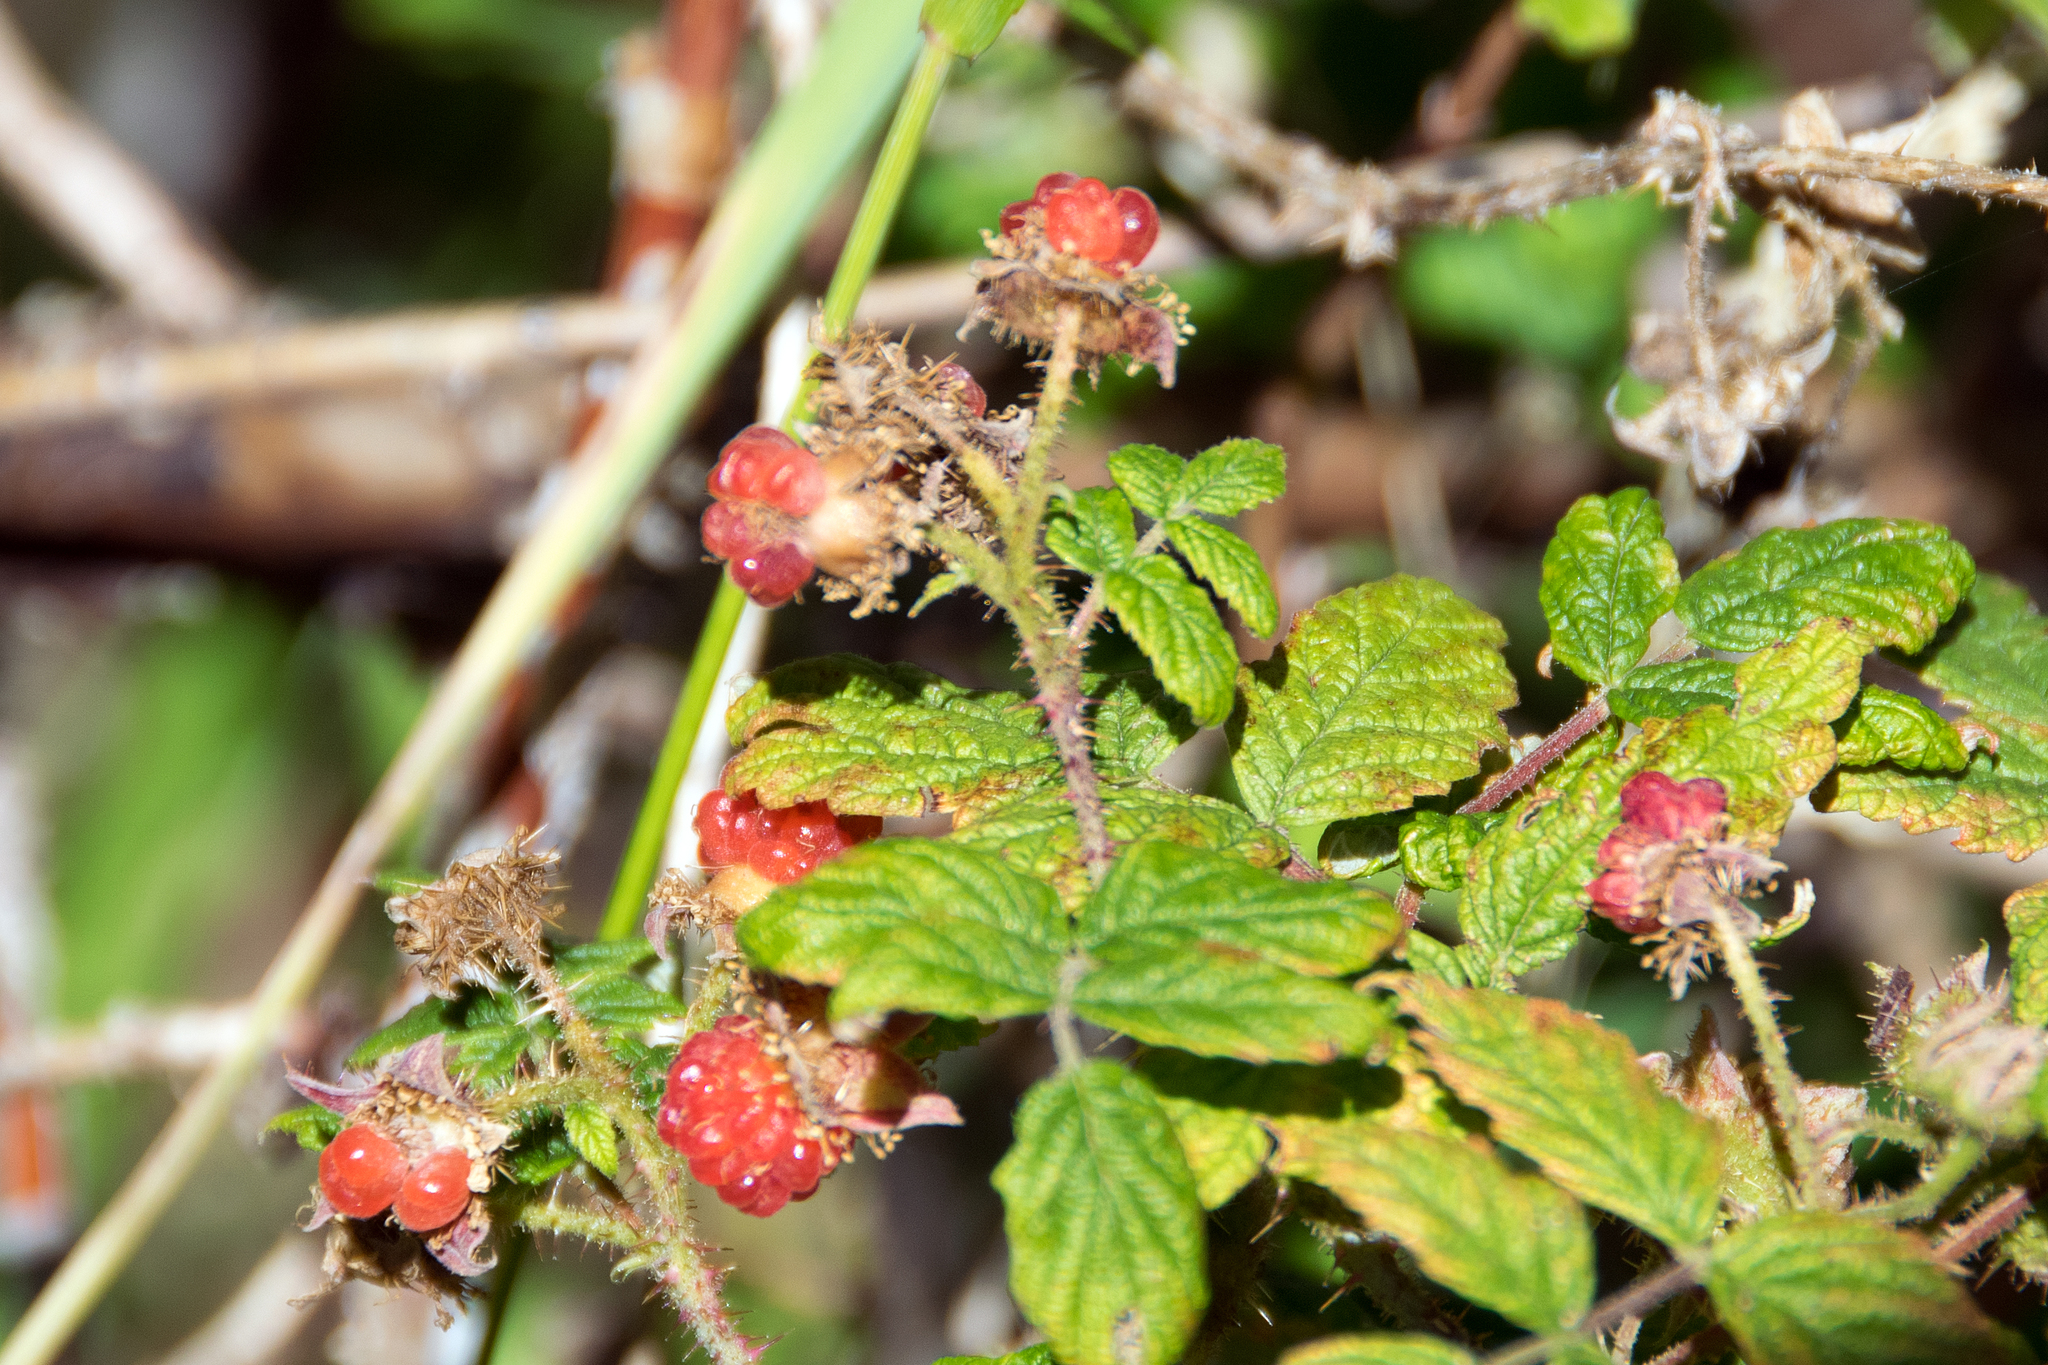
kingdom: Plantae
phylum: Tracheophyta
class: Magnoliopsida
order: Rosales
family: Rosaceae
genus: Rubus
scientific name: Rubus idaeus
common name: Raspberry
